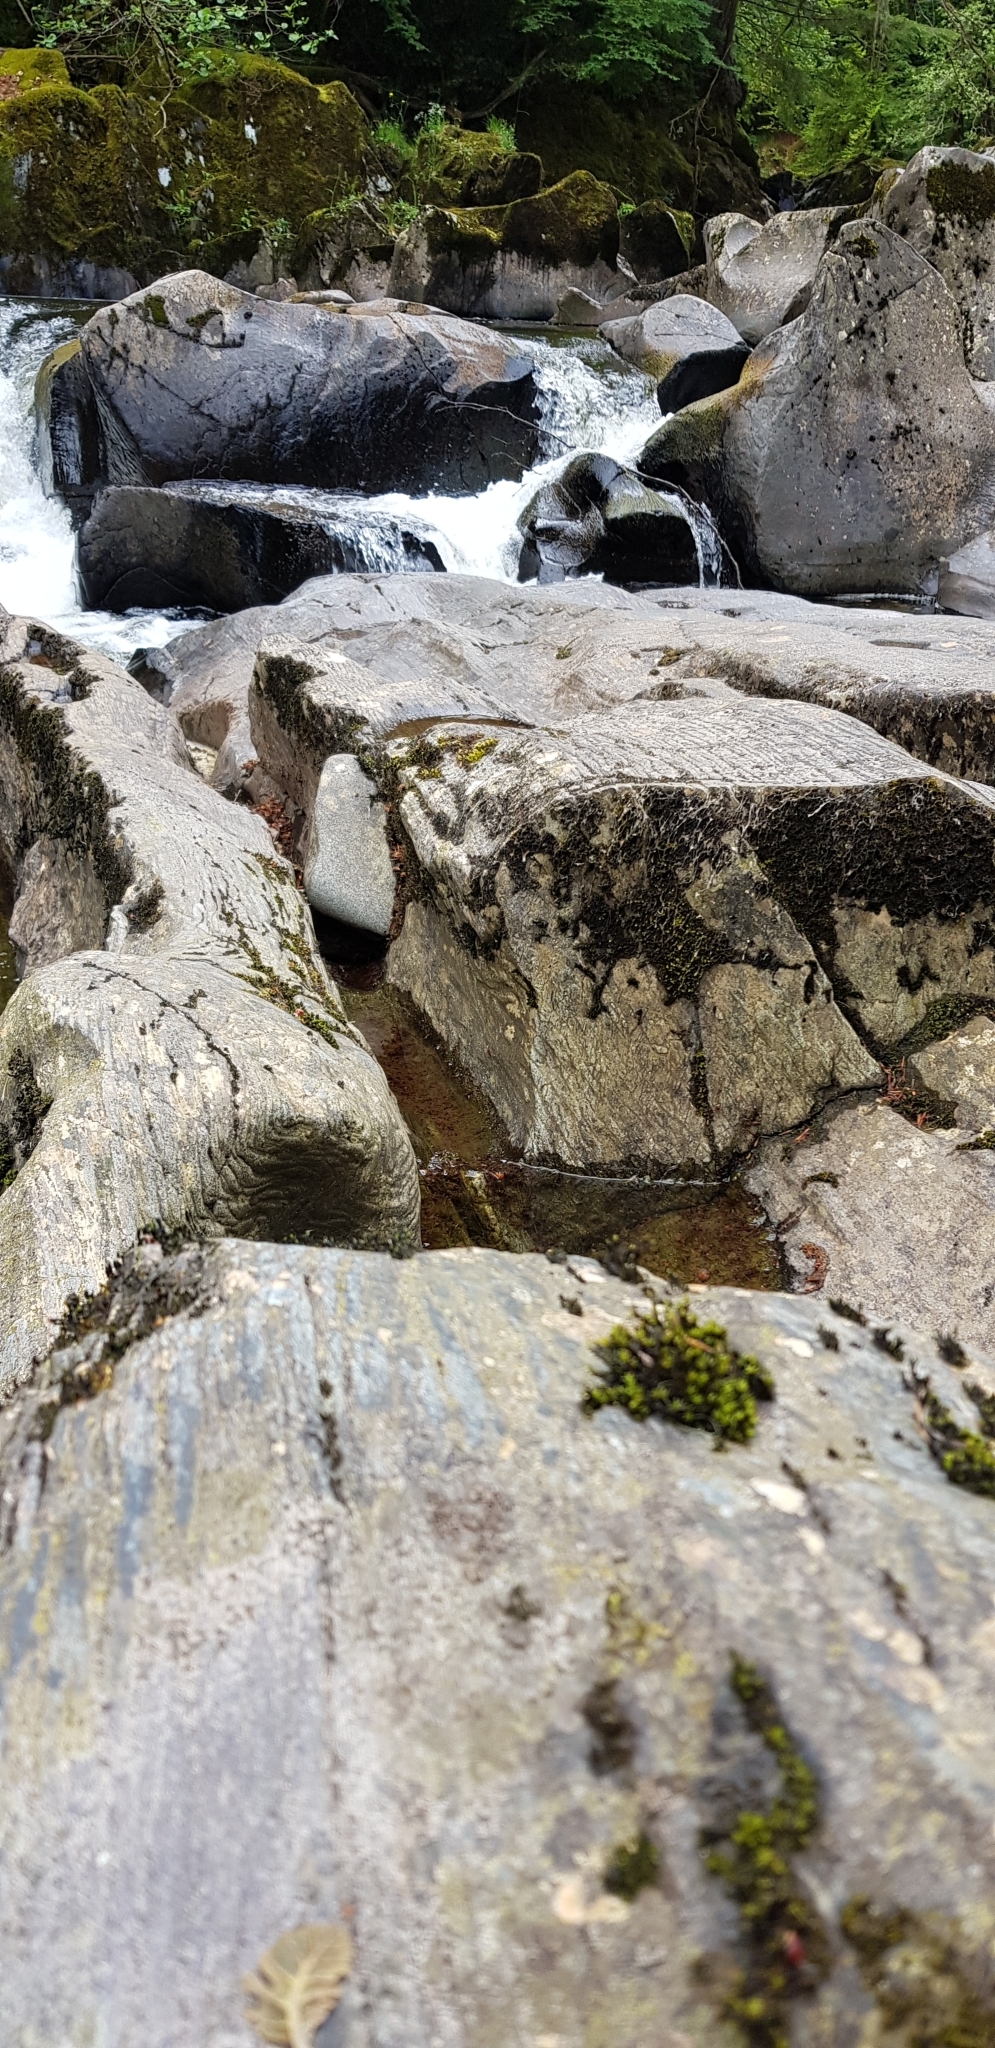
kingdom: Plantae
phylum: Bryophyta
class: Bryopsida
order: Grimmiales
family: Grimmiaceae
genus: Codriophorus
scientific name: Codriophorus acicularis
